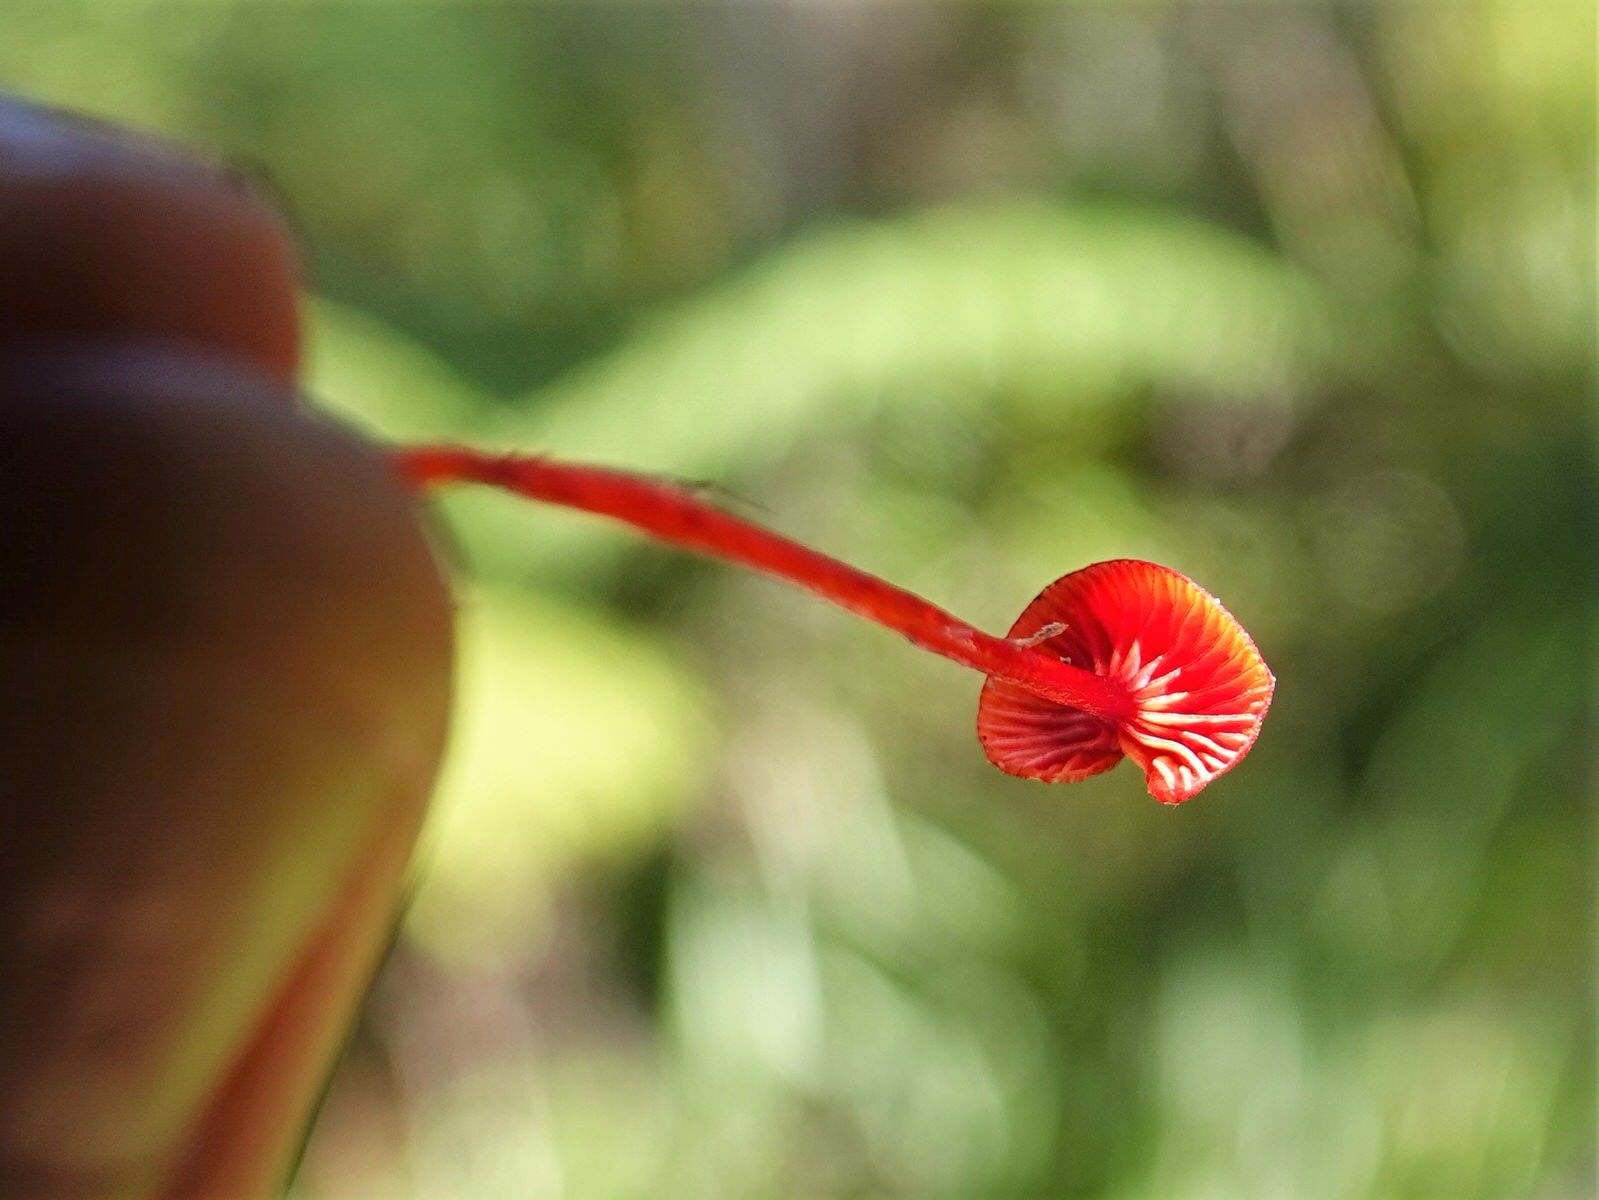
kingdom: Fungi
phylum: Basidiomycota
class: Agaricomycetes
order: Agaricales
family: Mycenaceae
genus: Cruentomycena
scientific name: Cruentomycena viscidocruenta
